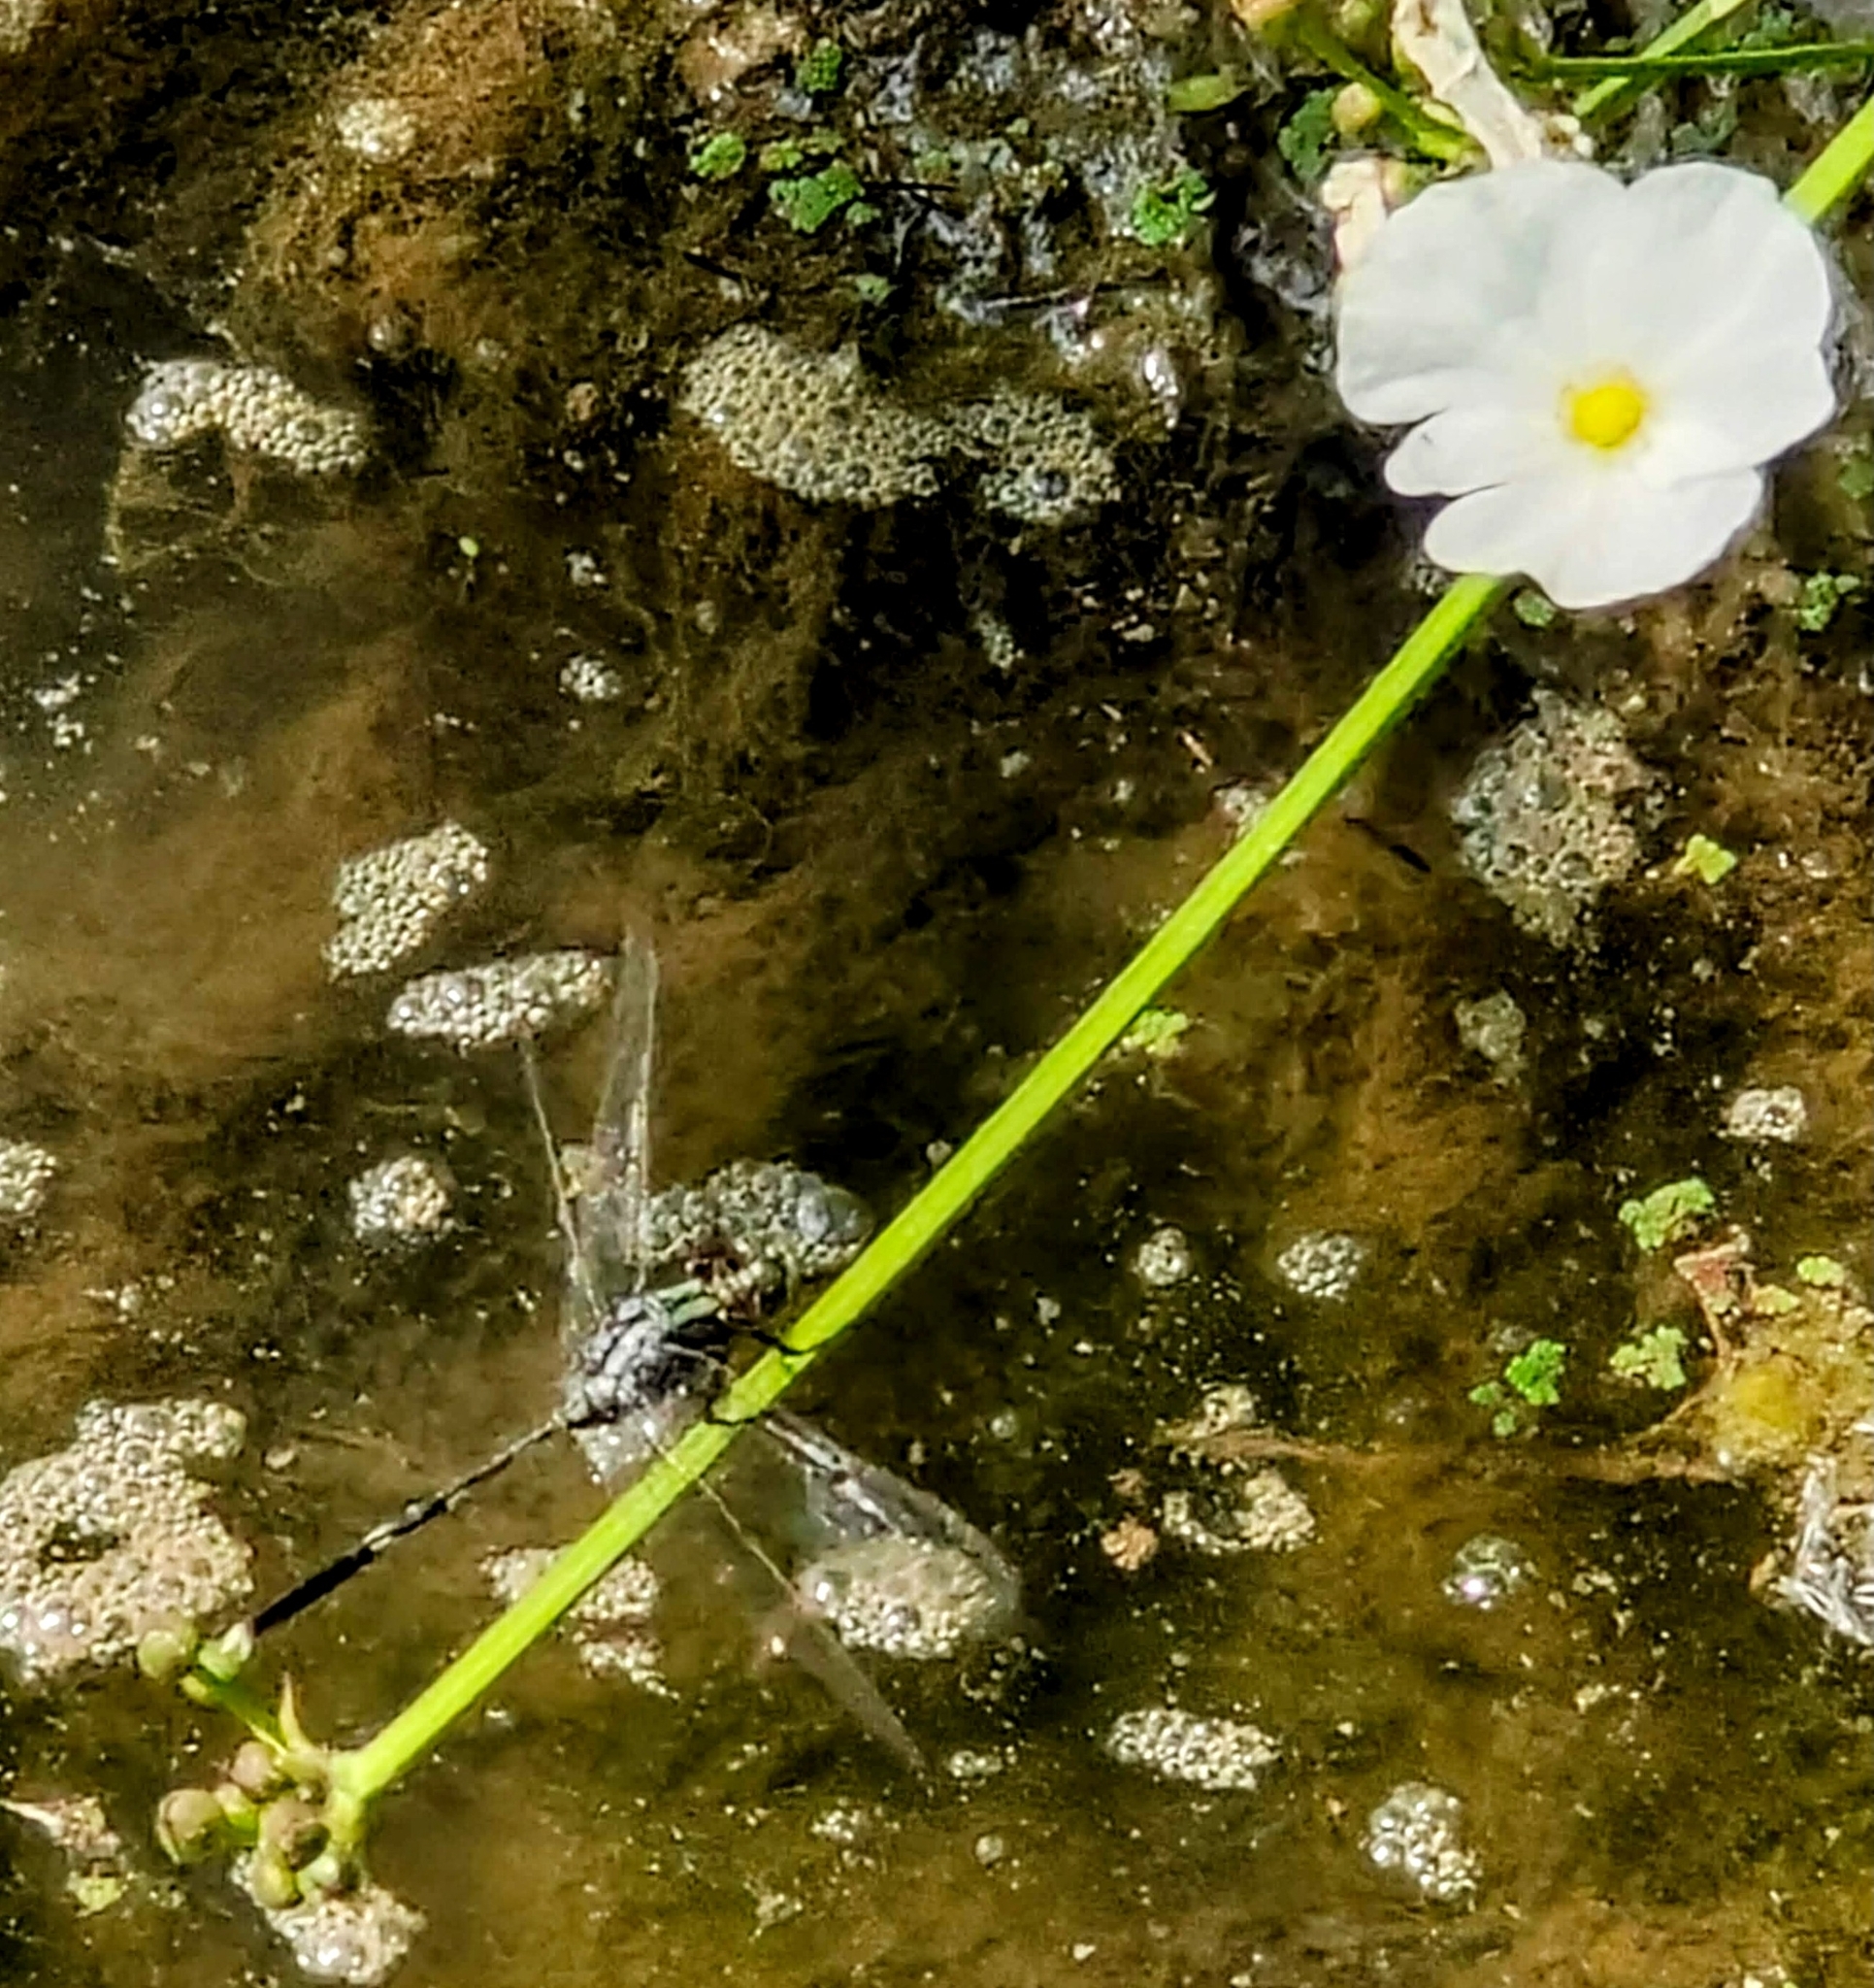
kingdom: Animalia
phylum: Arthropoda
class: Insecta
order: Odonata
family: Libellulidae
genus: Orthetrum
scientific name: Orthetrum sabina
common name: Slender skimmer
